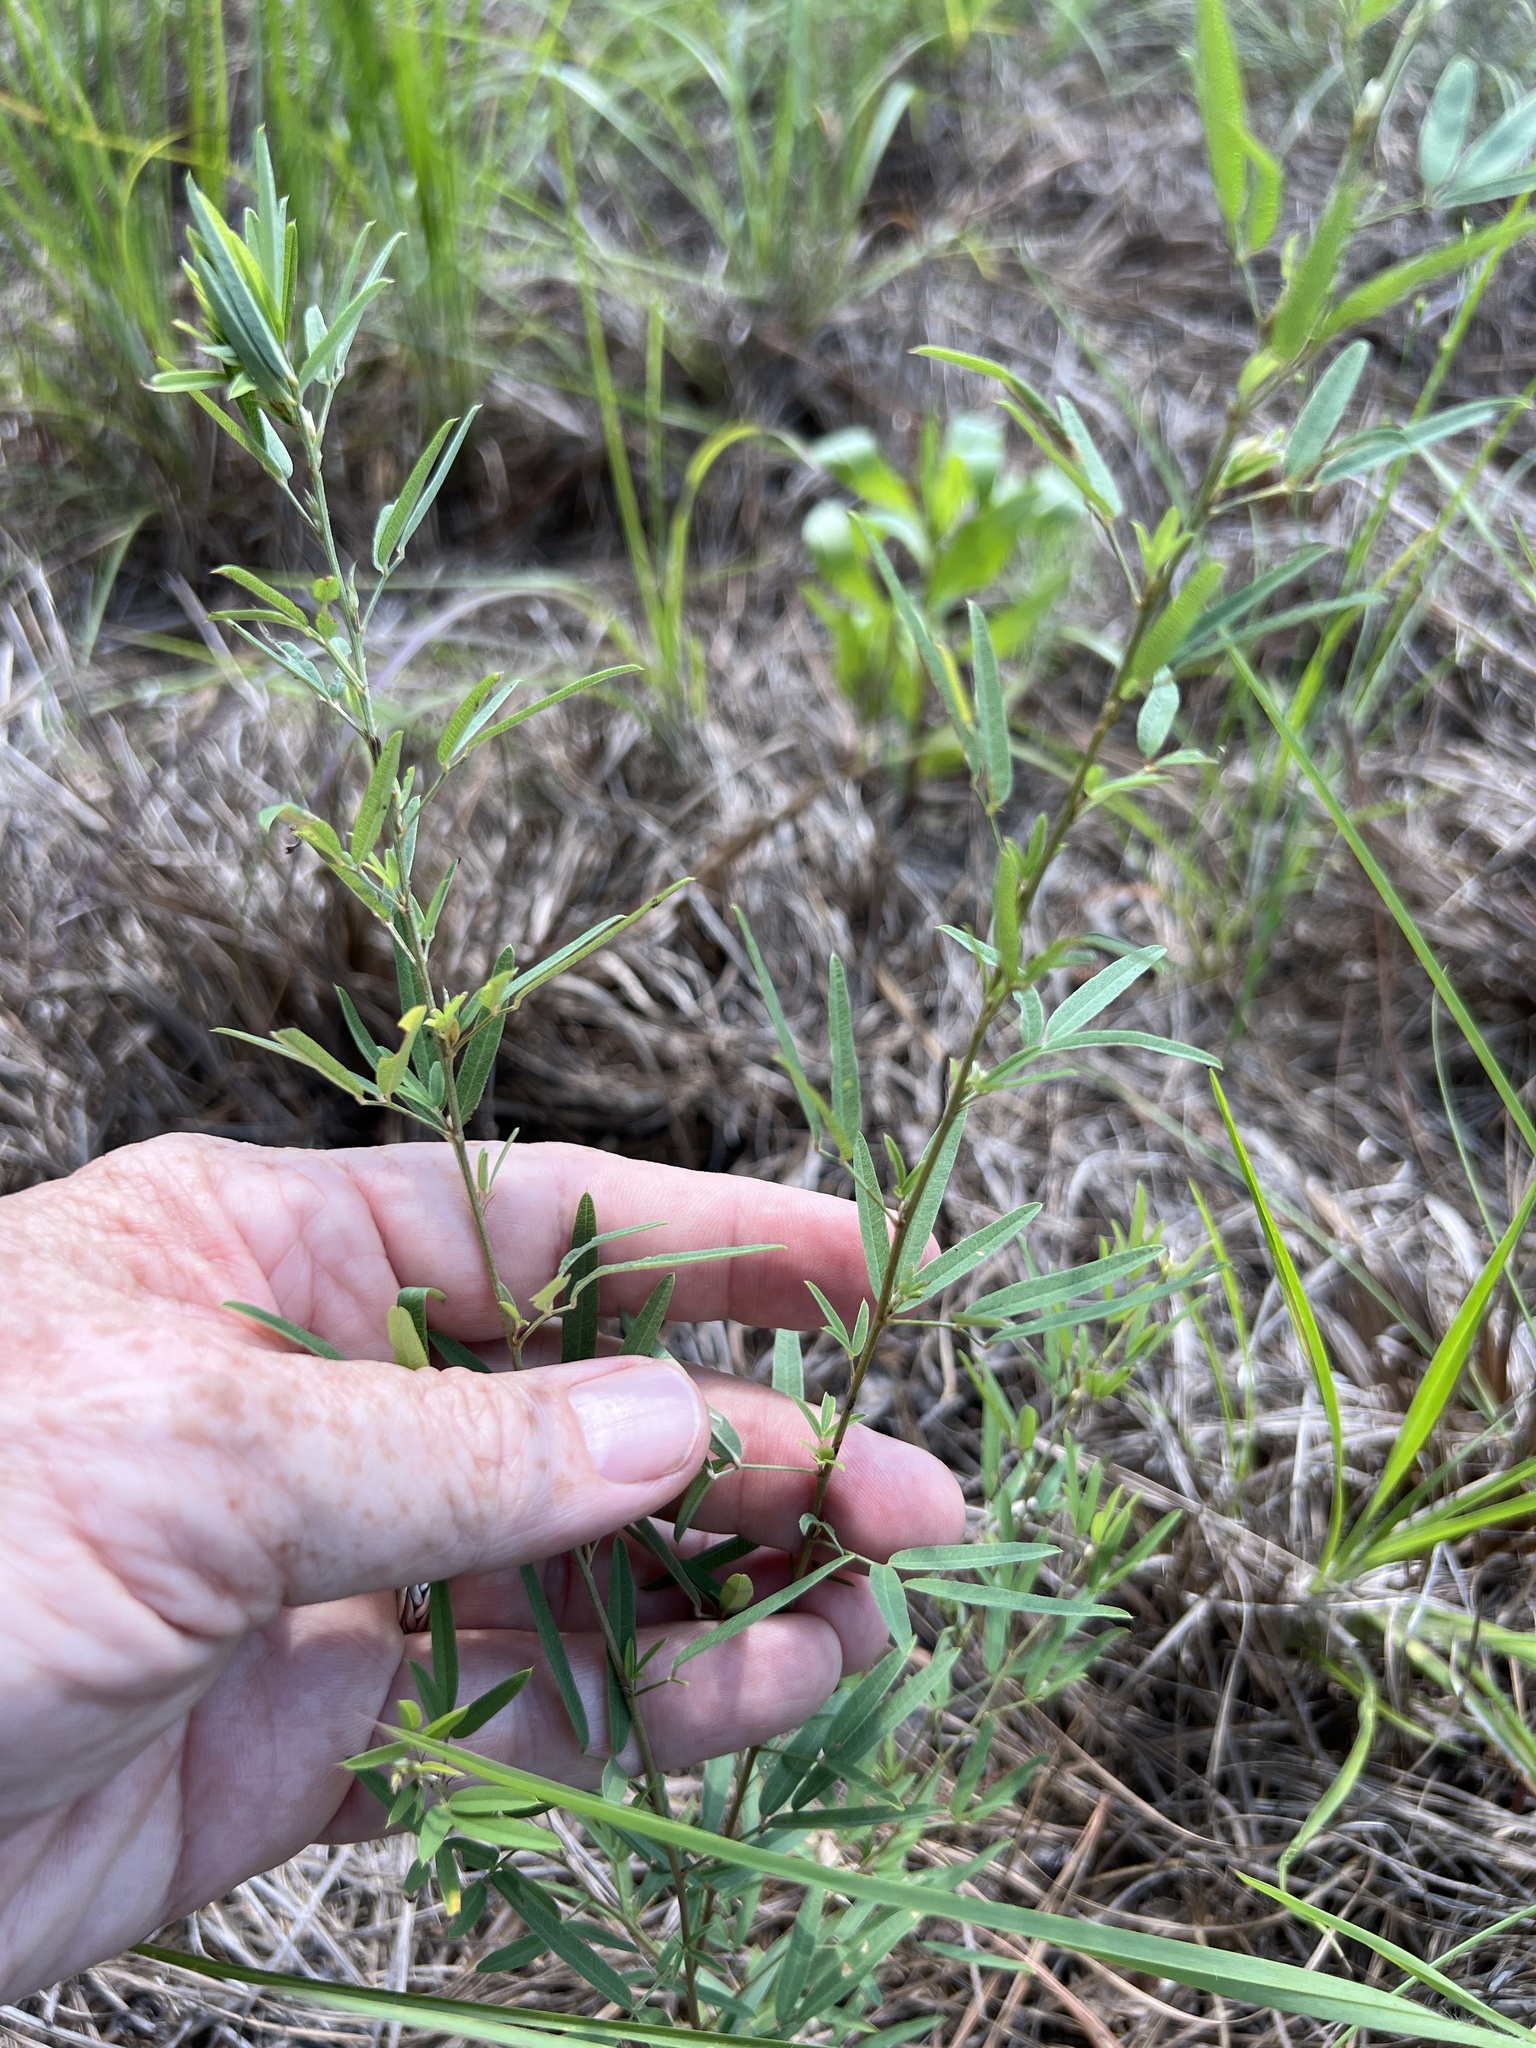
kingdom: Plantae
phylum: Tracheophyta
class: Magnoliopsida
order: Fabales
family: Fabaceae
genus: Lespedeza
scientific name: Lespedeza virginica
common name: Slender bush-clover
